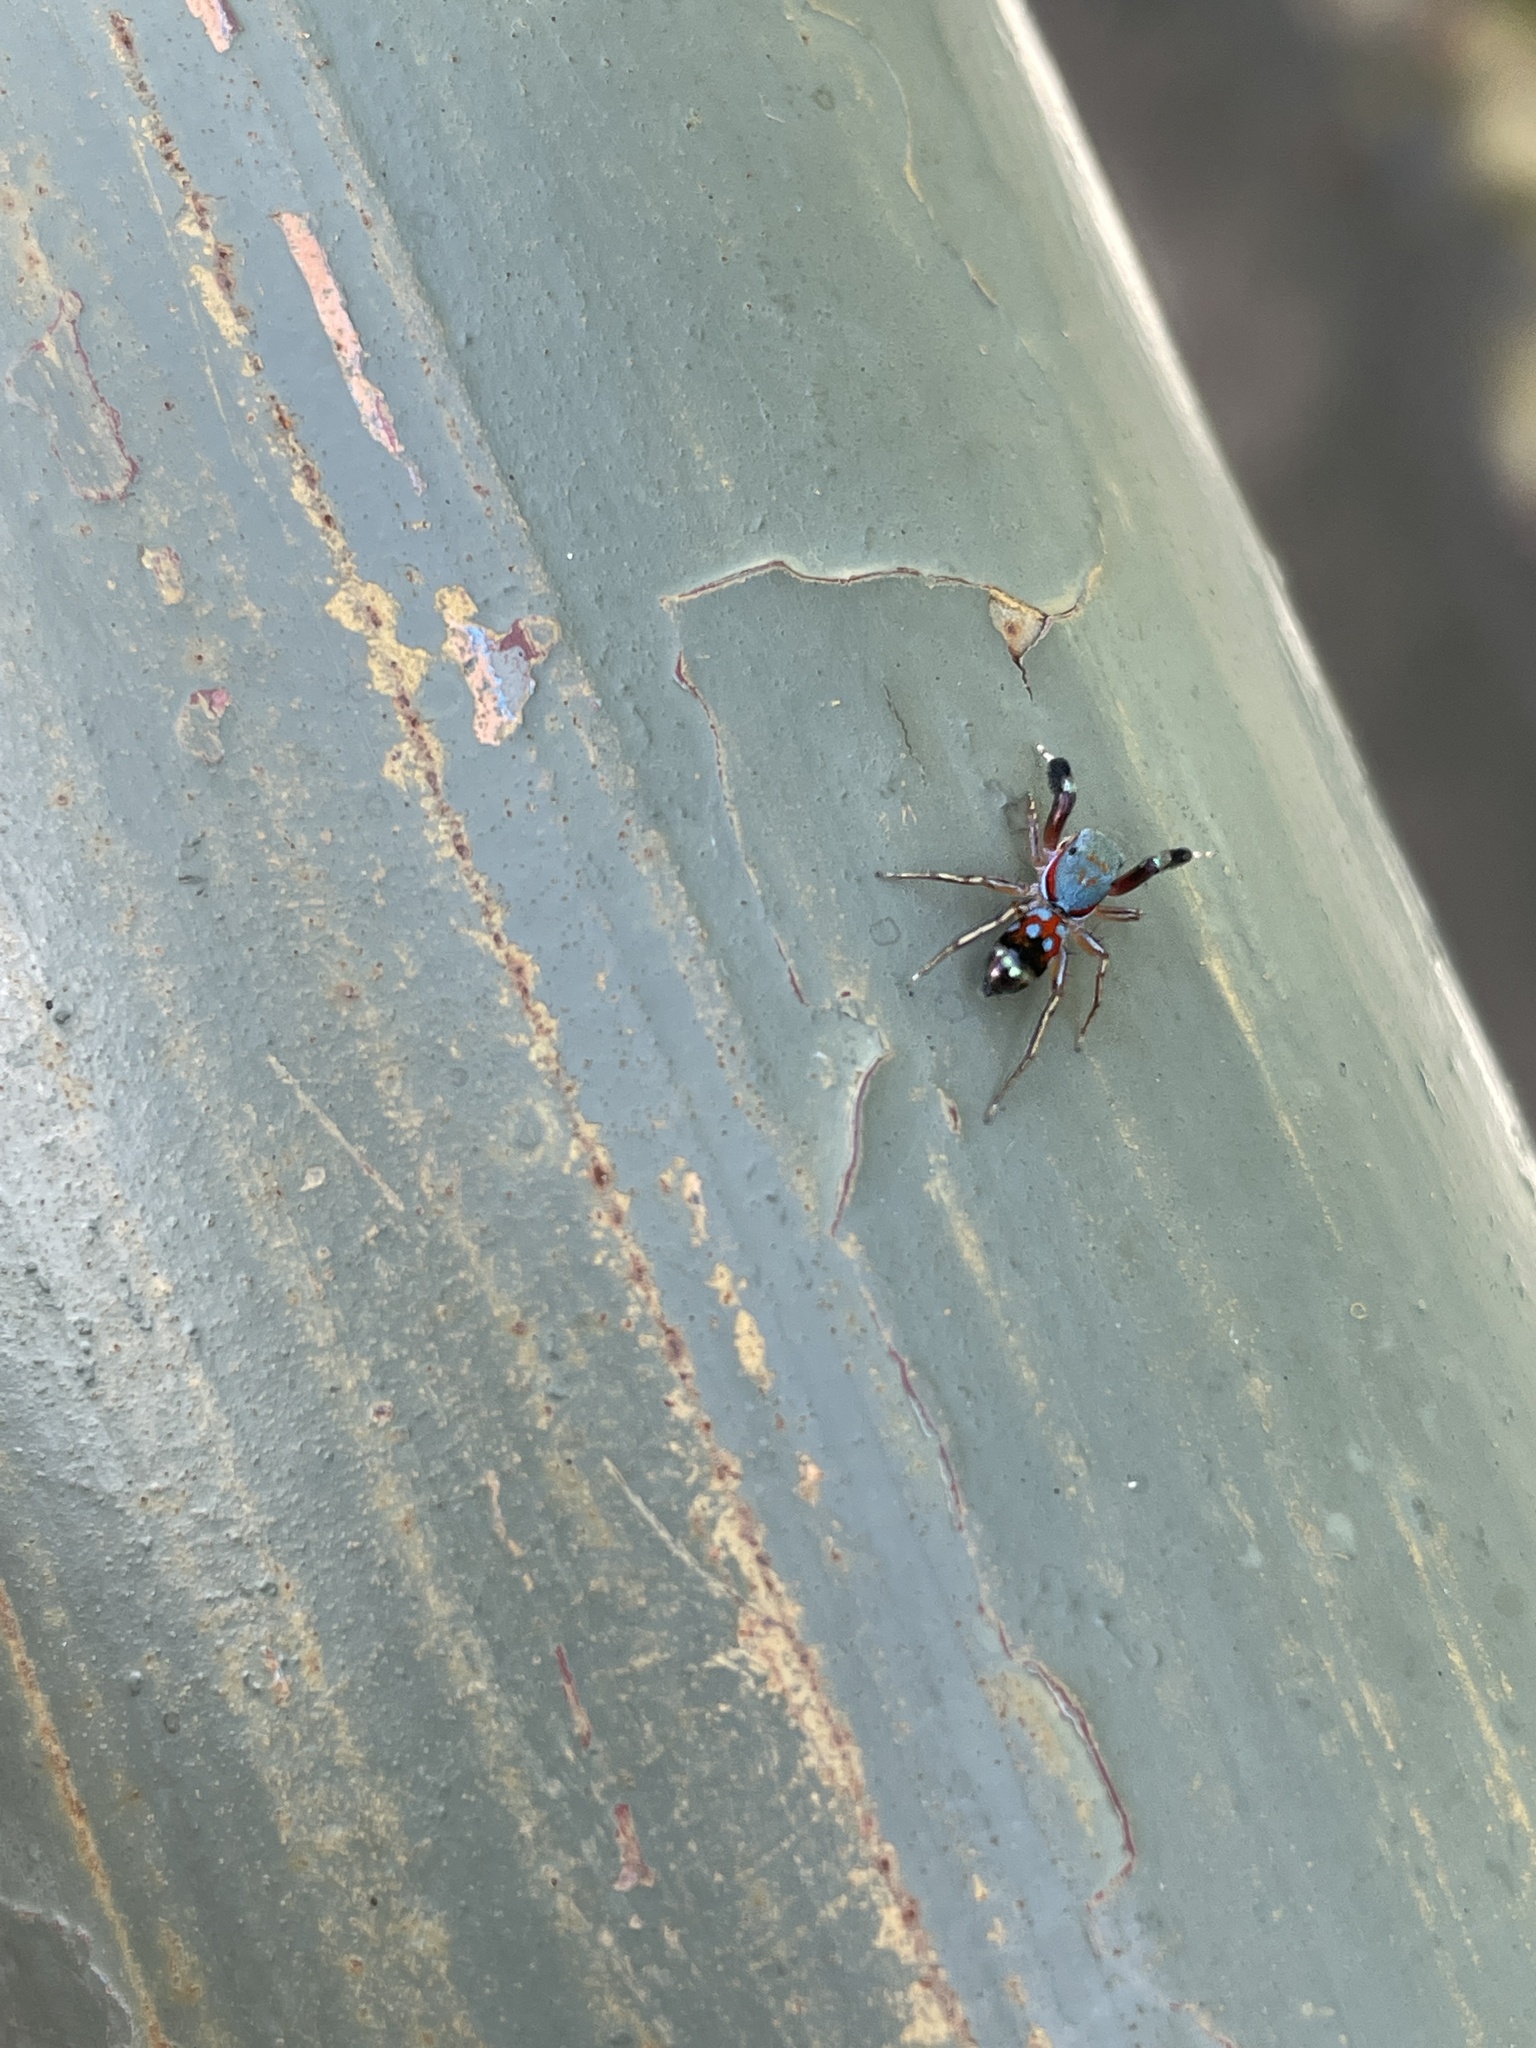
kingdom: Animalia
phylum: Arthropoda
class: Arachnida
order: Araneae
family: Salticidae
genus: Siler
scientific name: Siler collingwoodi
